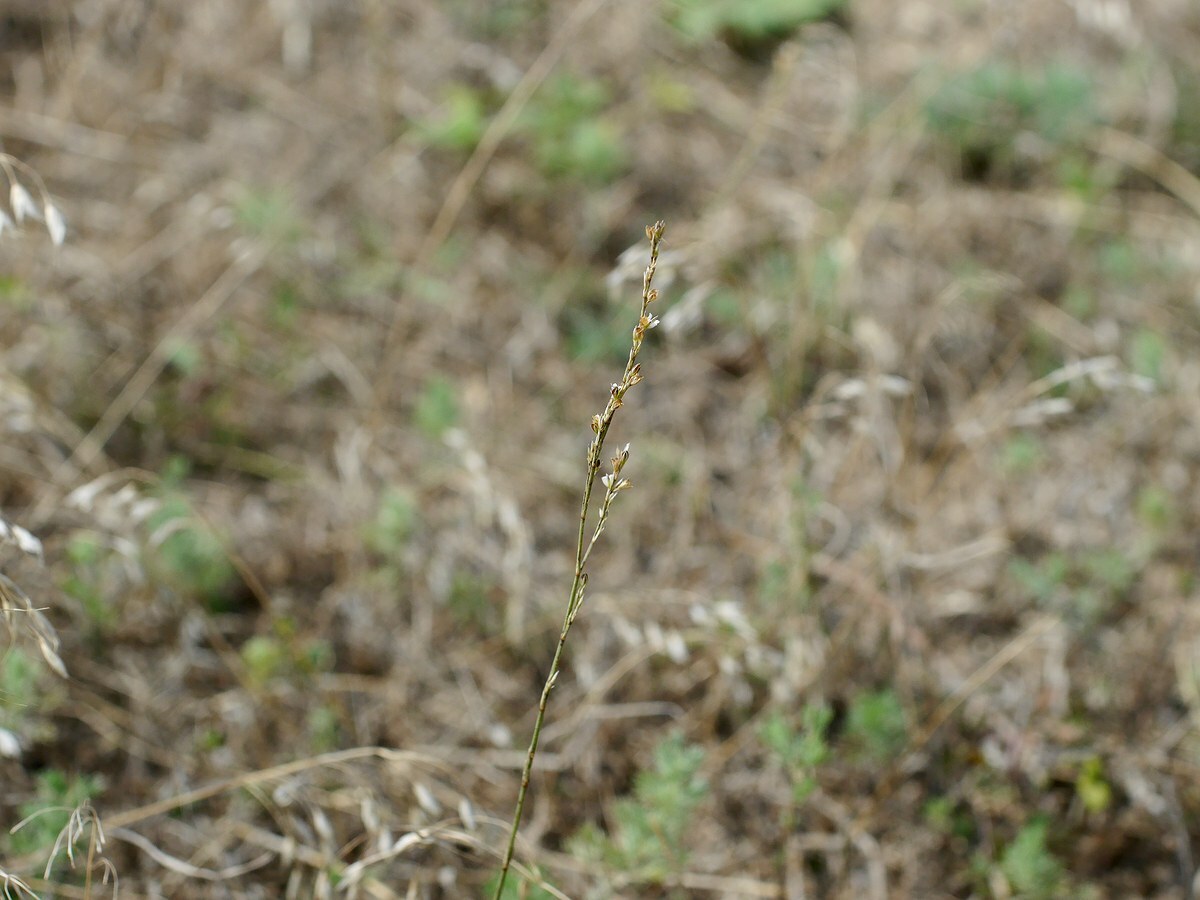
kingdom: Plantae
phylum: Tracheophyta
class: Magnoliopsida
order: Caryophyllales
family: Caryophyllaceae
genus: Bufonia
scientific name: Bufonia parviflora
